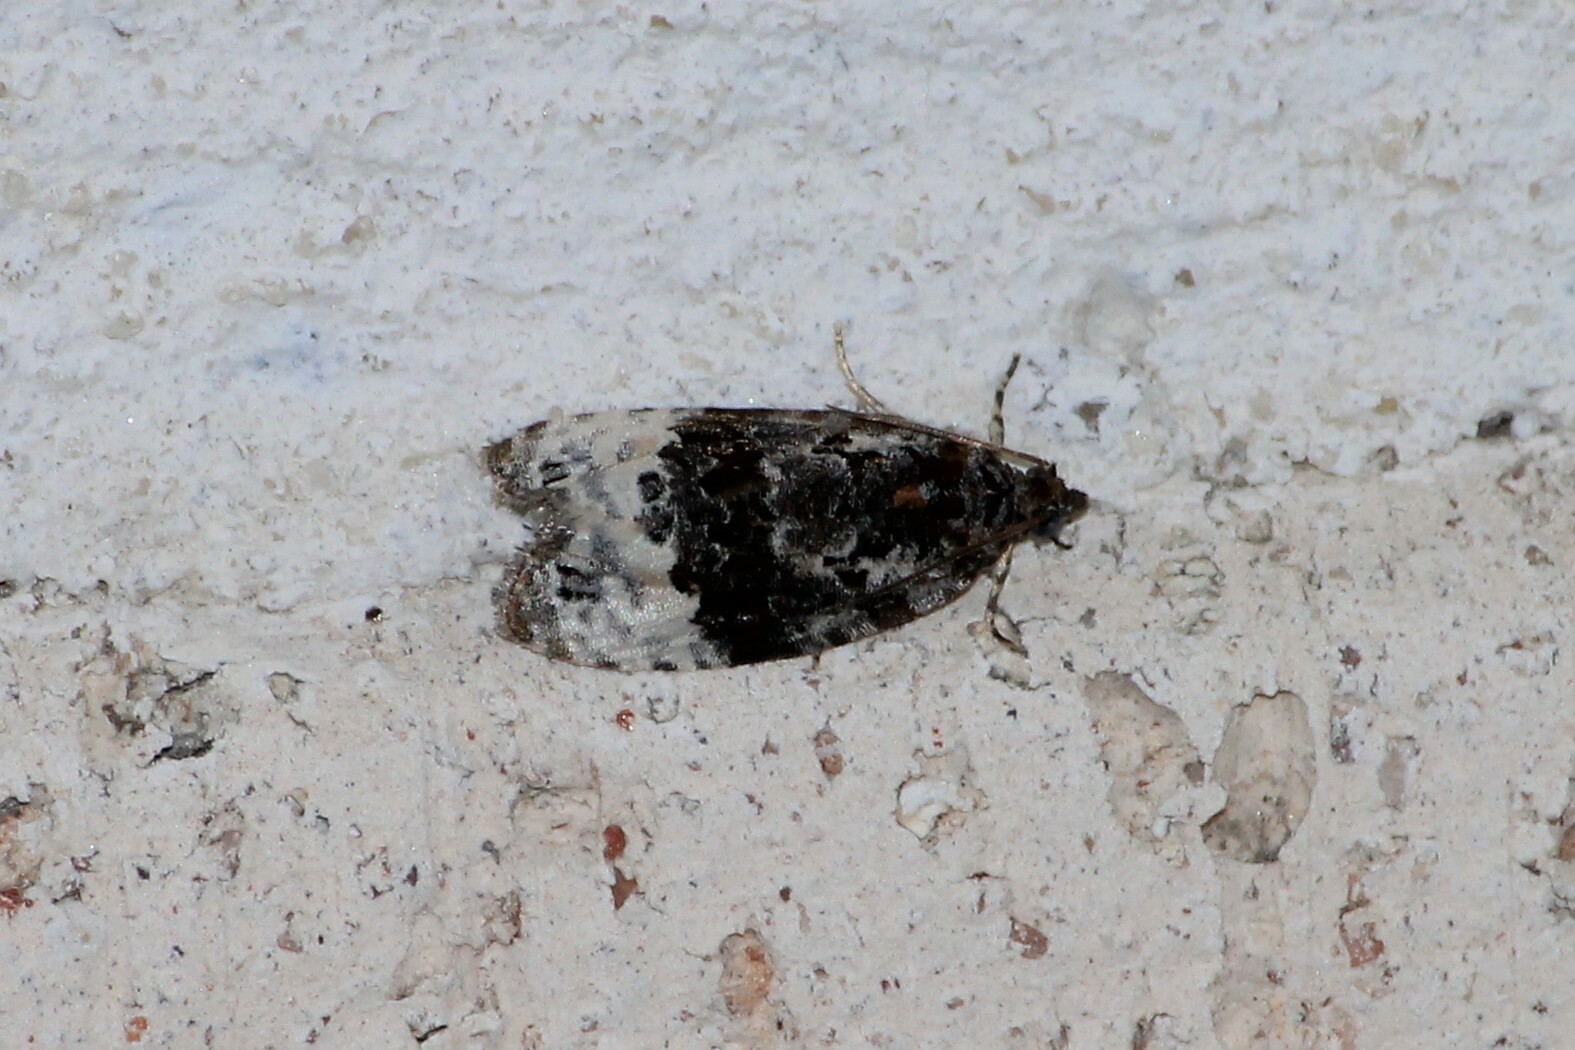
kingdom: Animalia
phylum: Arthropoda
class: Insecta
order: Lepidoptera
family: Tortricidae
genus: Apotomis
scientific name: Apotomis betuletana
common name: Birch marble
